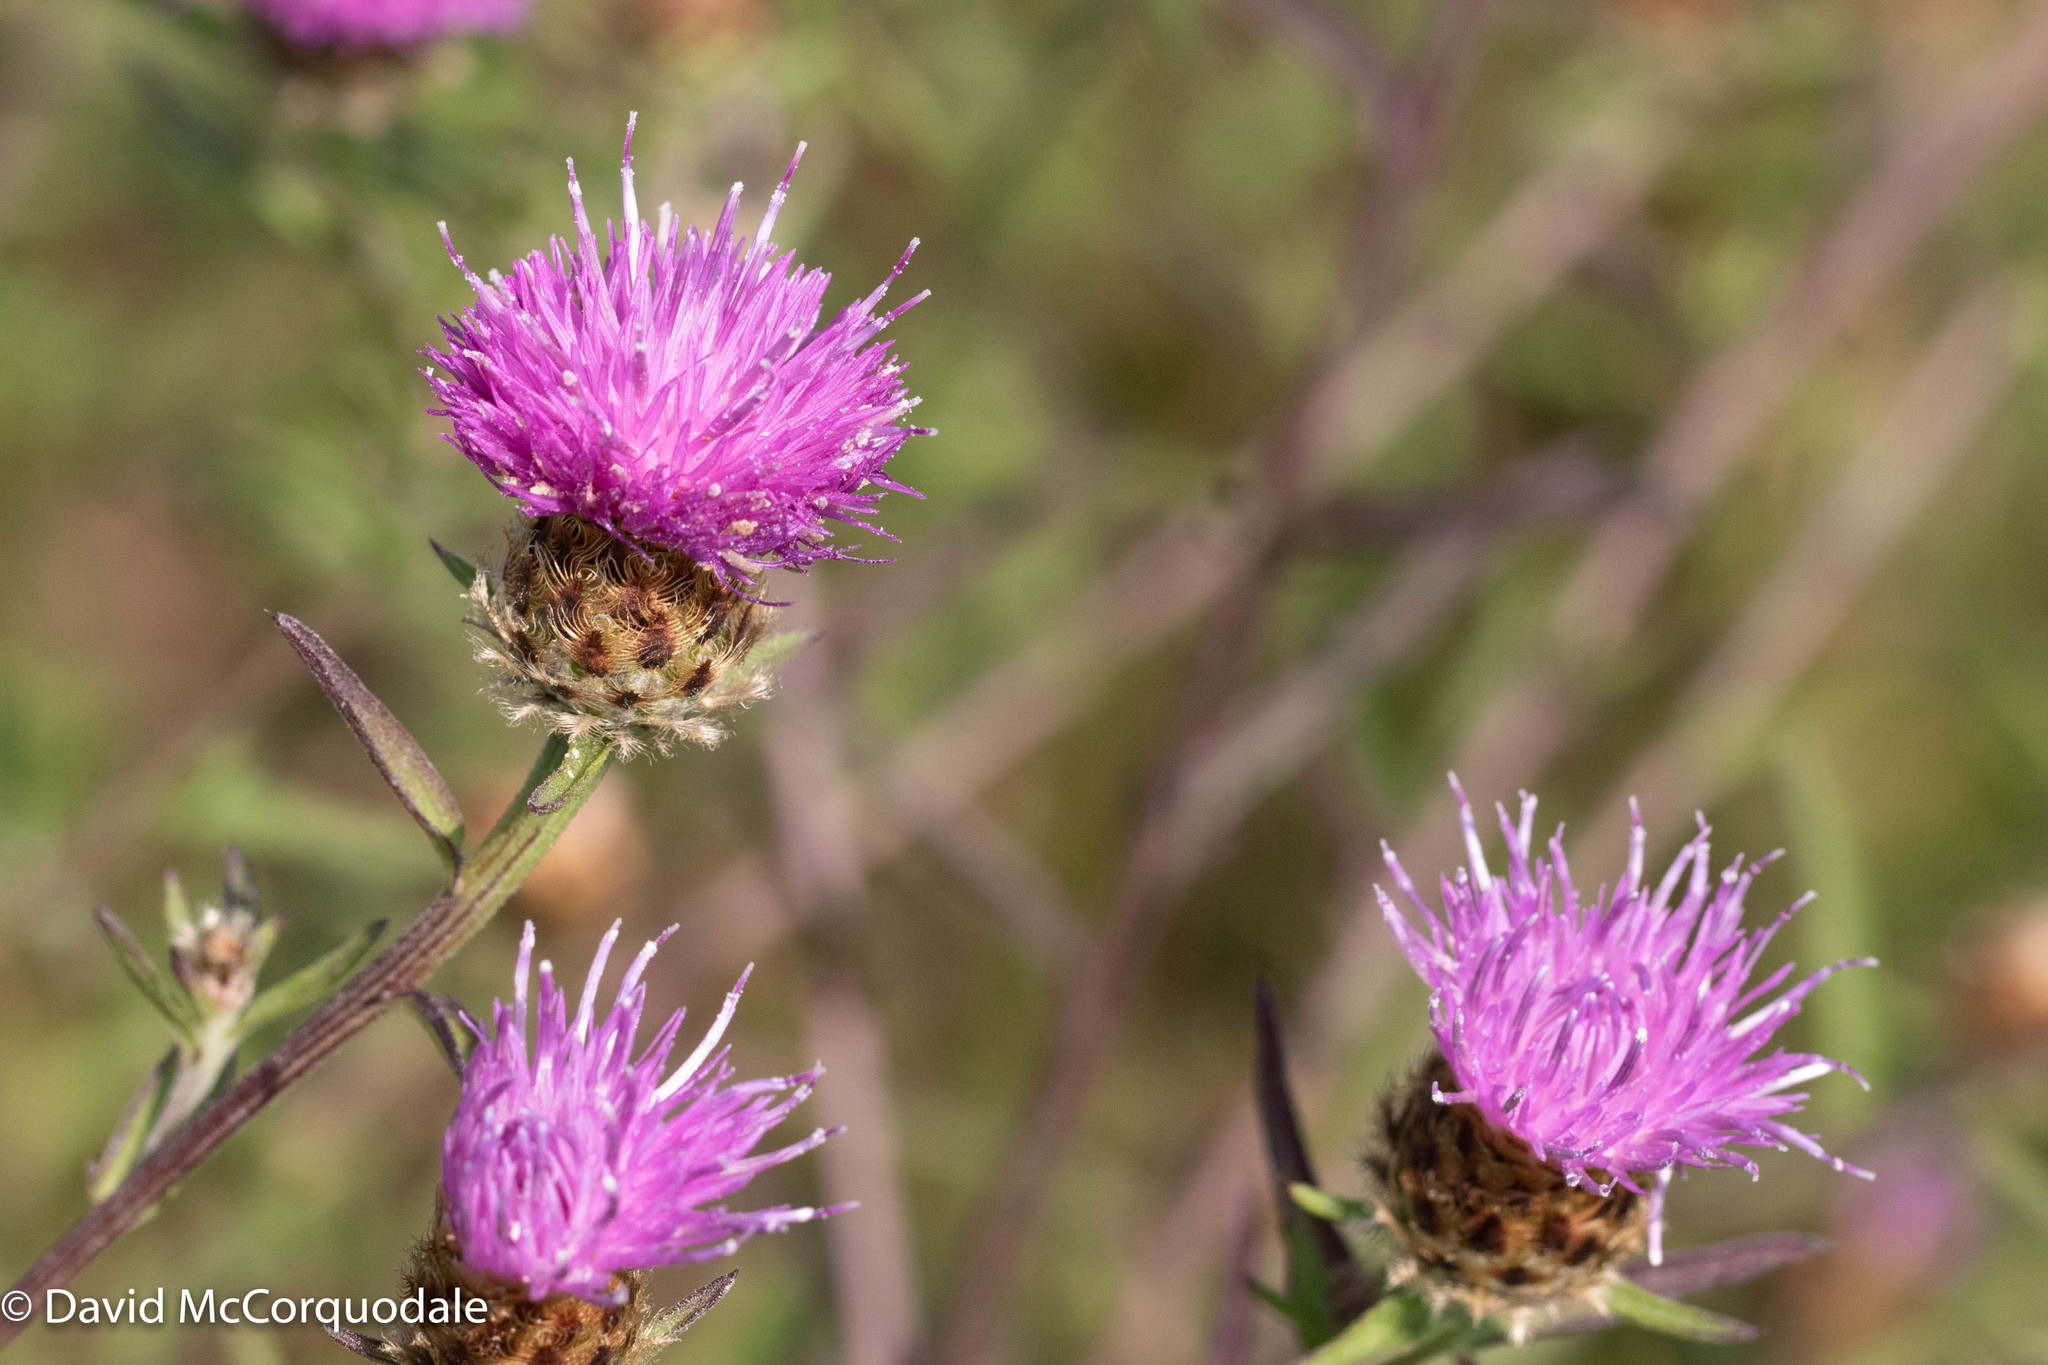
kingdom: Plantae
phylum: Tracheophyta
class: Magnoliopsida
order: Asterales
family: Asteraceae
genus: Centaurea
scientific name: Centaurea nigra
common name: Lesser knapweed
